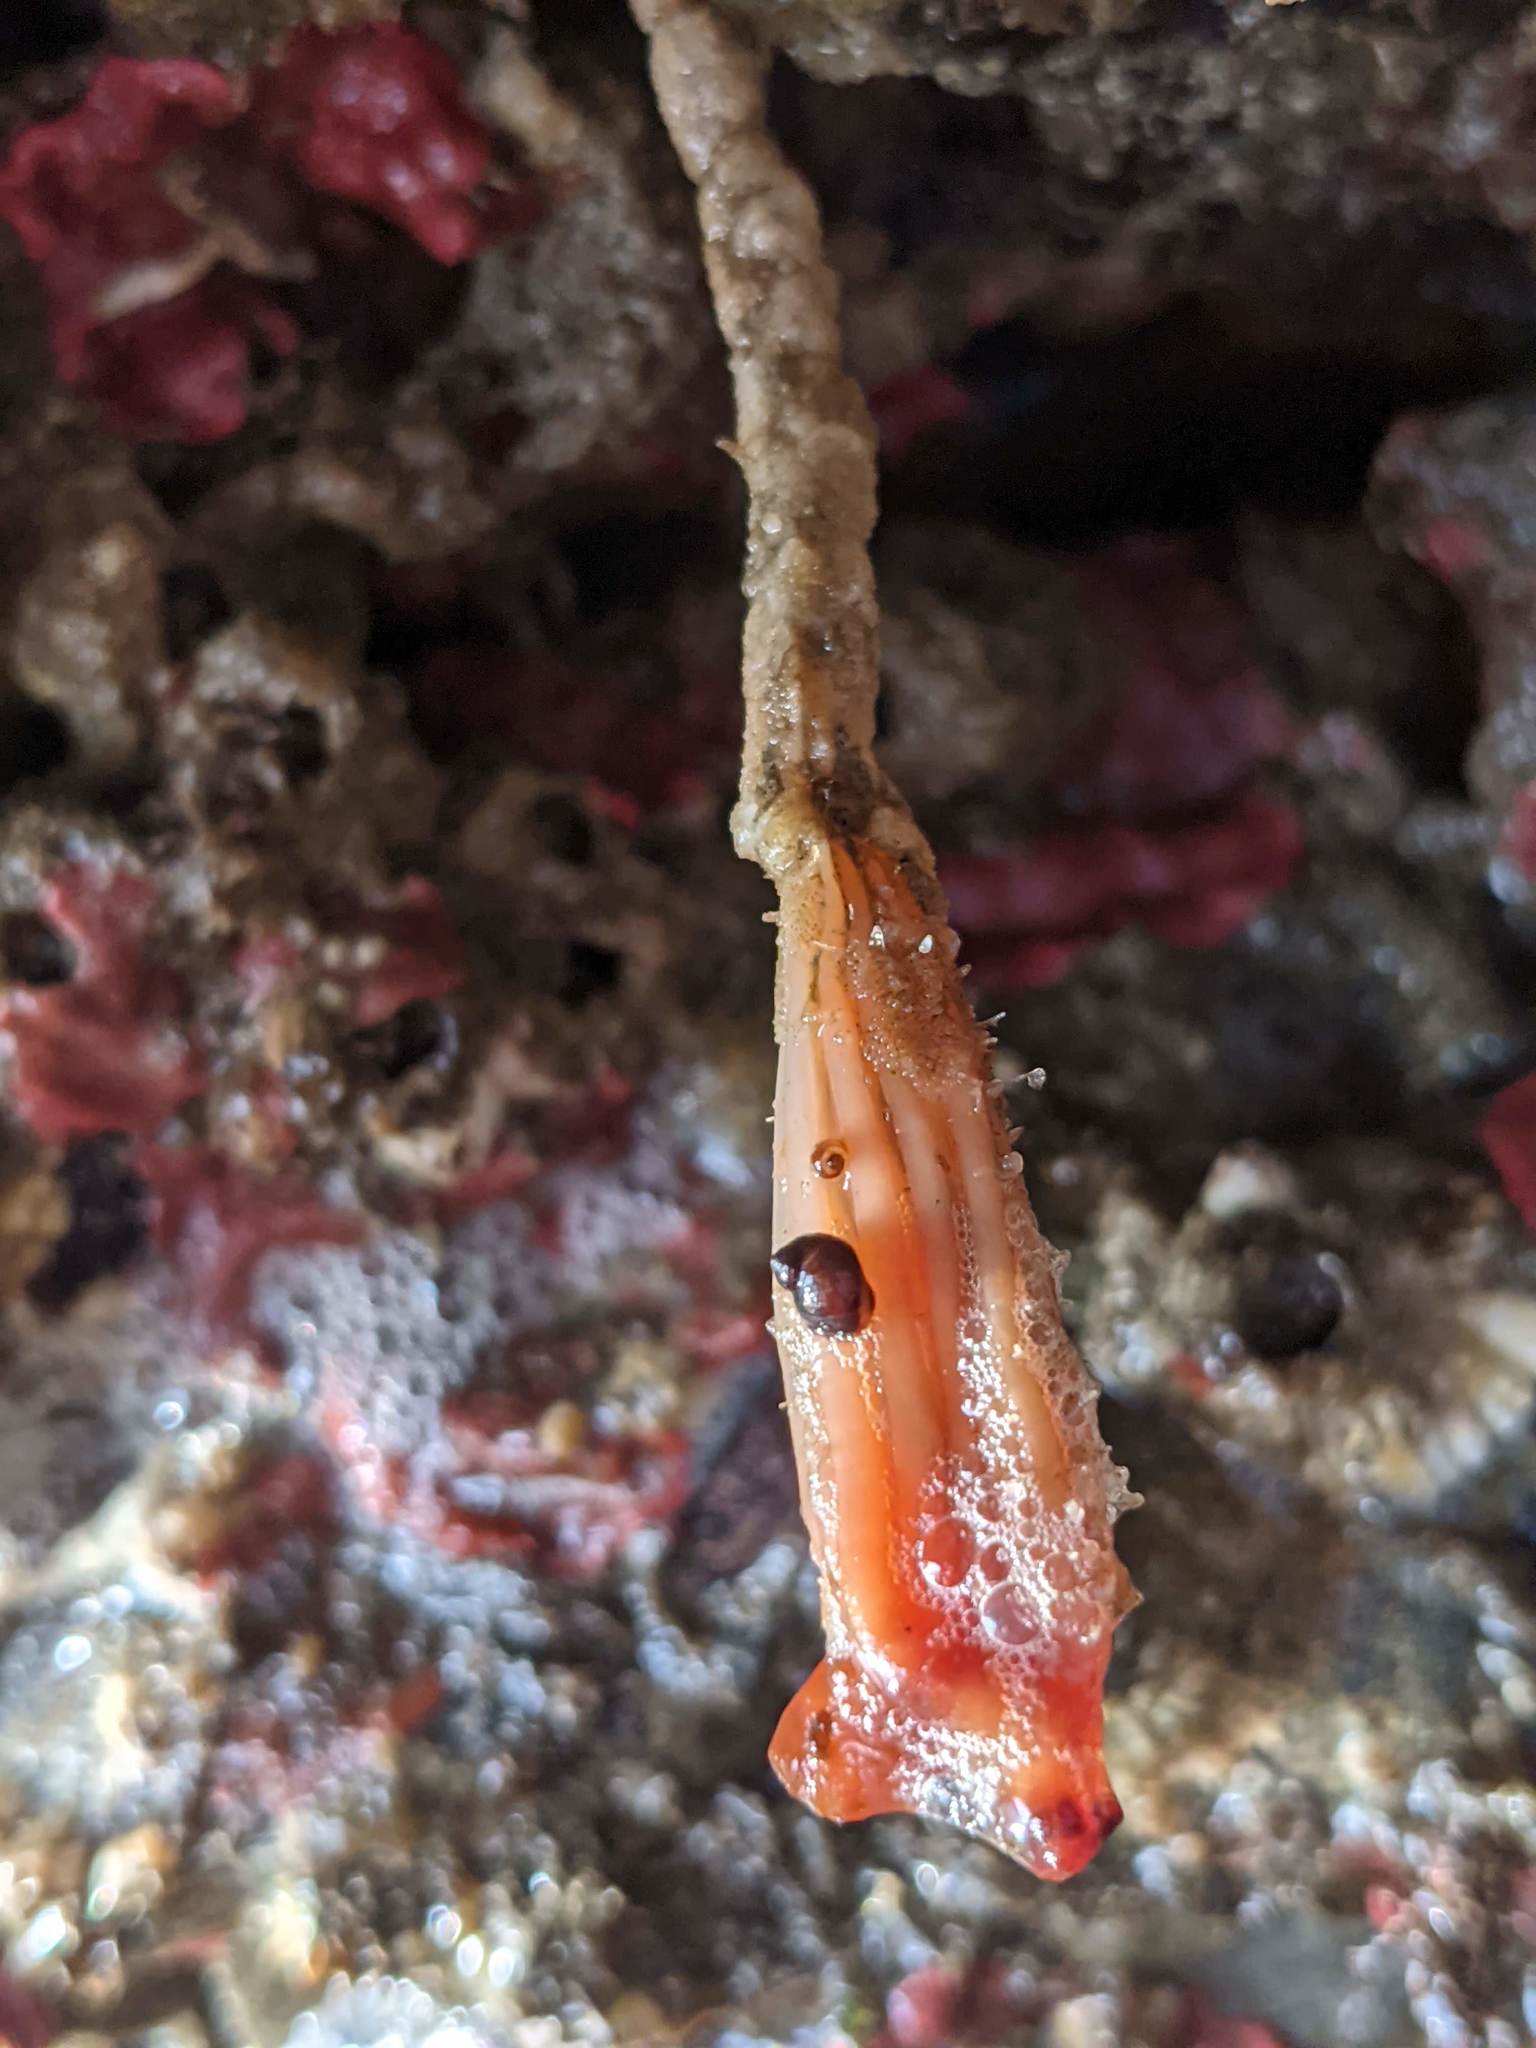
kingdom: Animalia
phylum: Chordata
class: Ascidiacea
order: Stolidobranchia
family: Styelidae
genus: Styela
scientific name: Styela montereyensis
